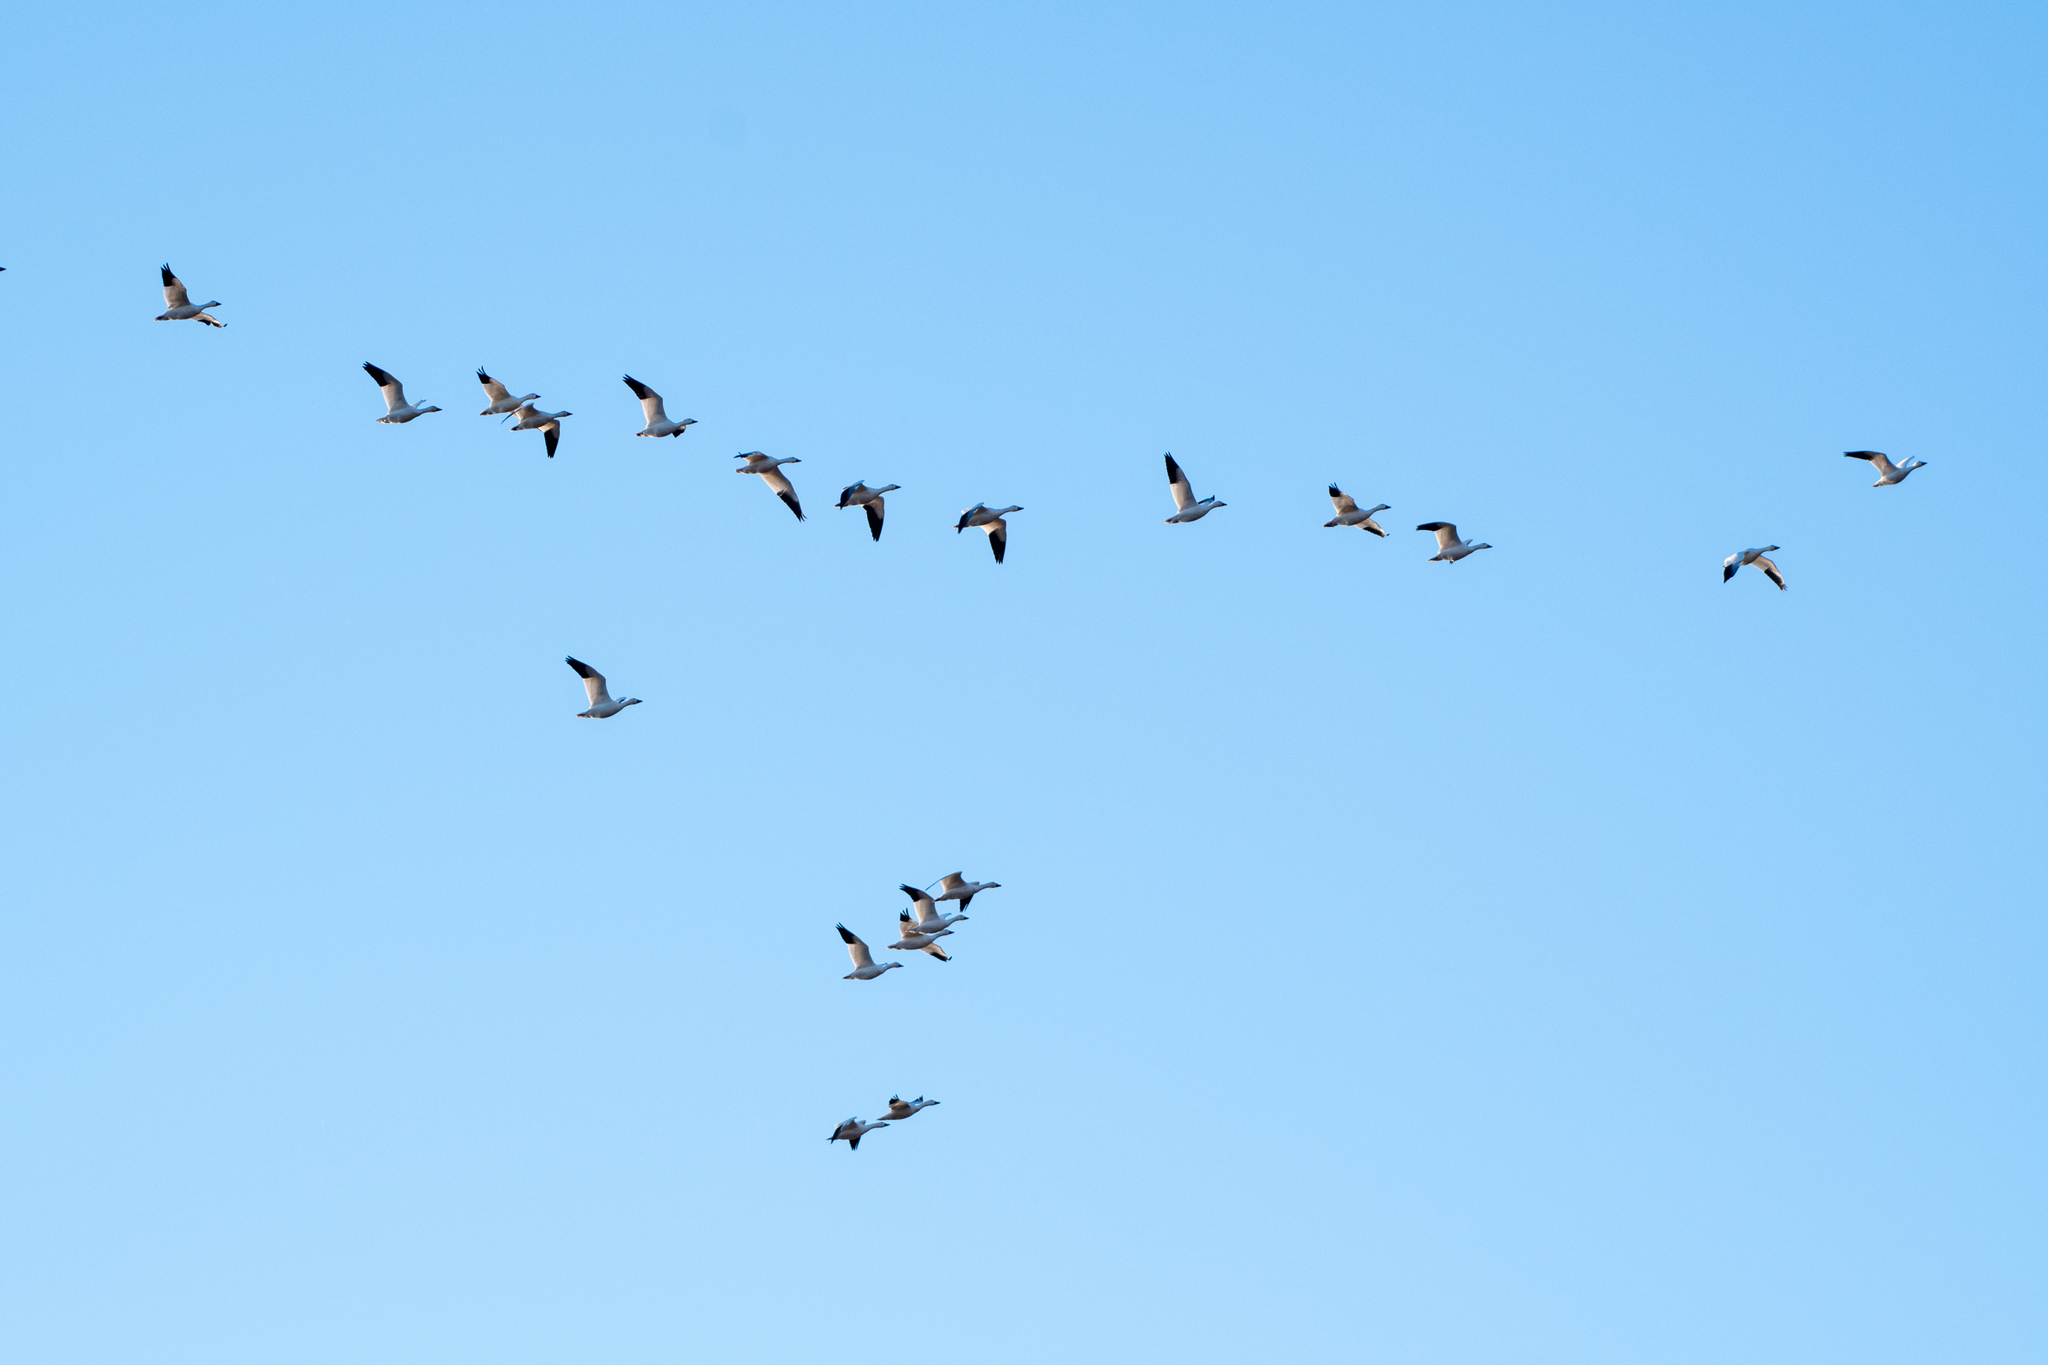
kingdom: Animalia
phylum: Chordata
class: Aves
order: Anseriformes
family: Anatidae
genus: Anser
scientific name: Anser caerulescens
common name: Snow goose
